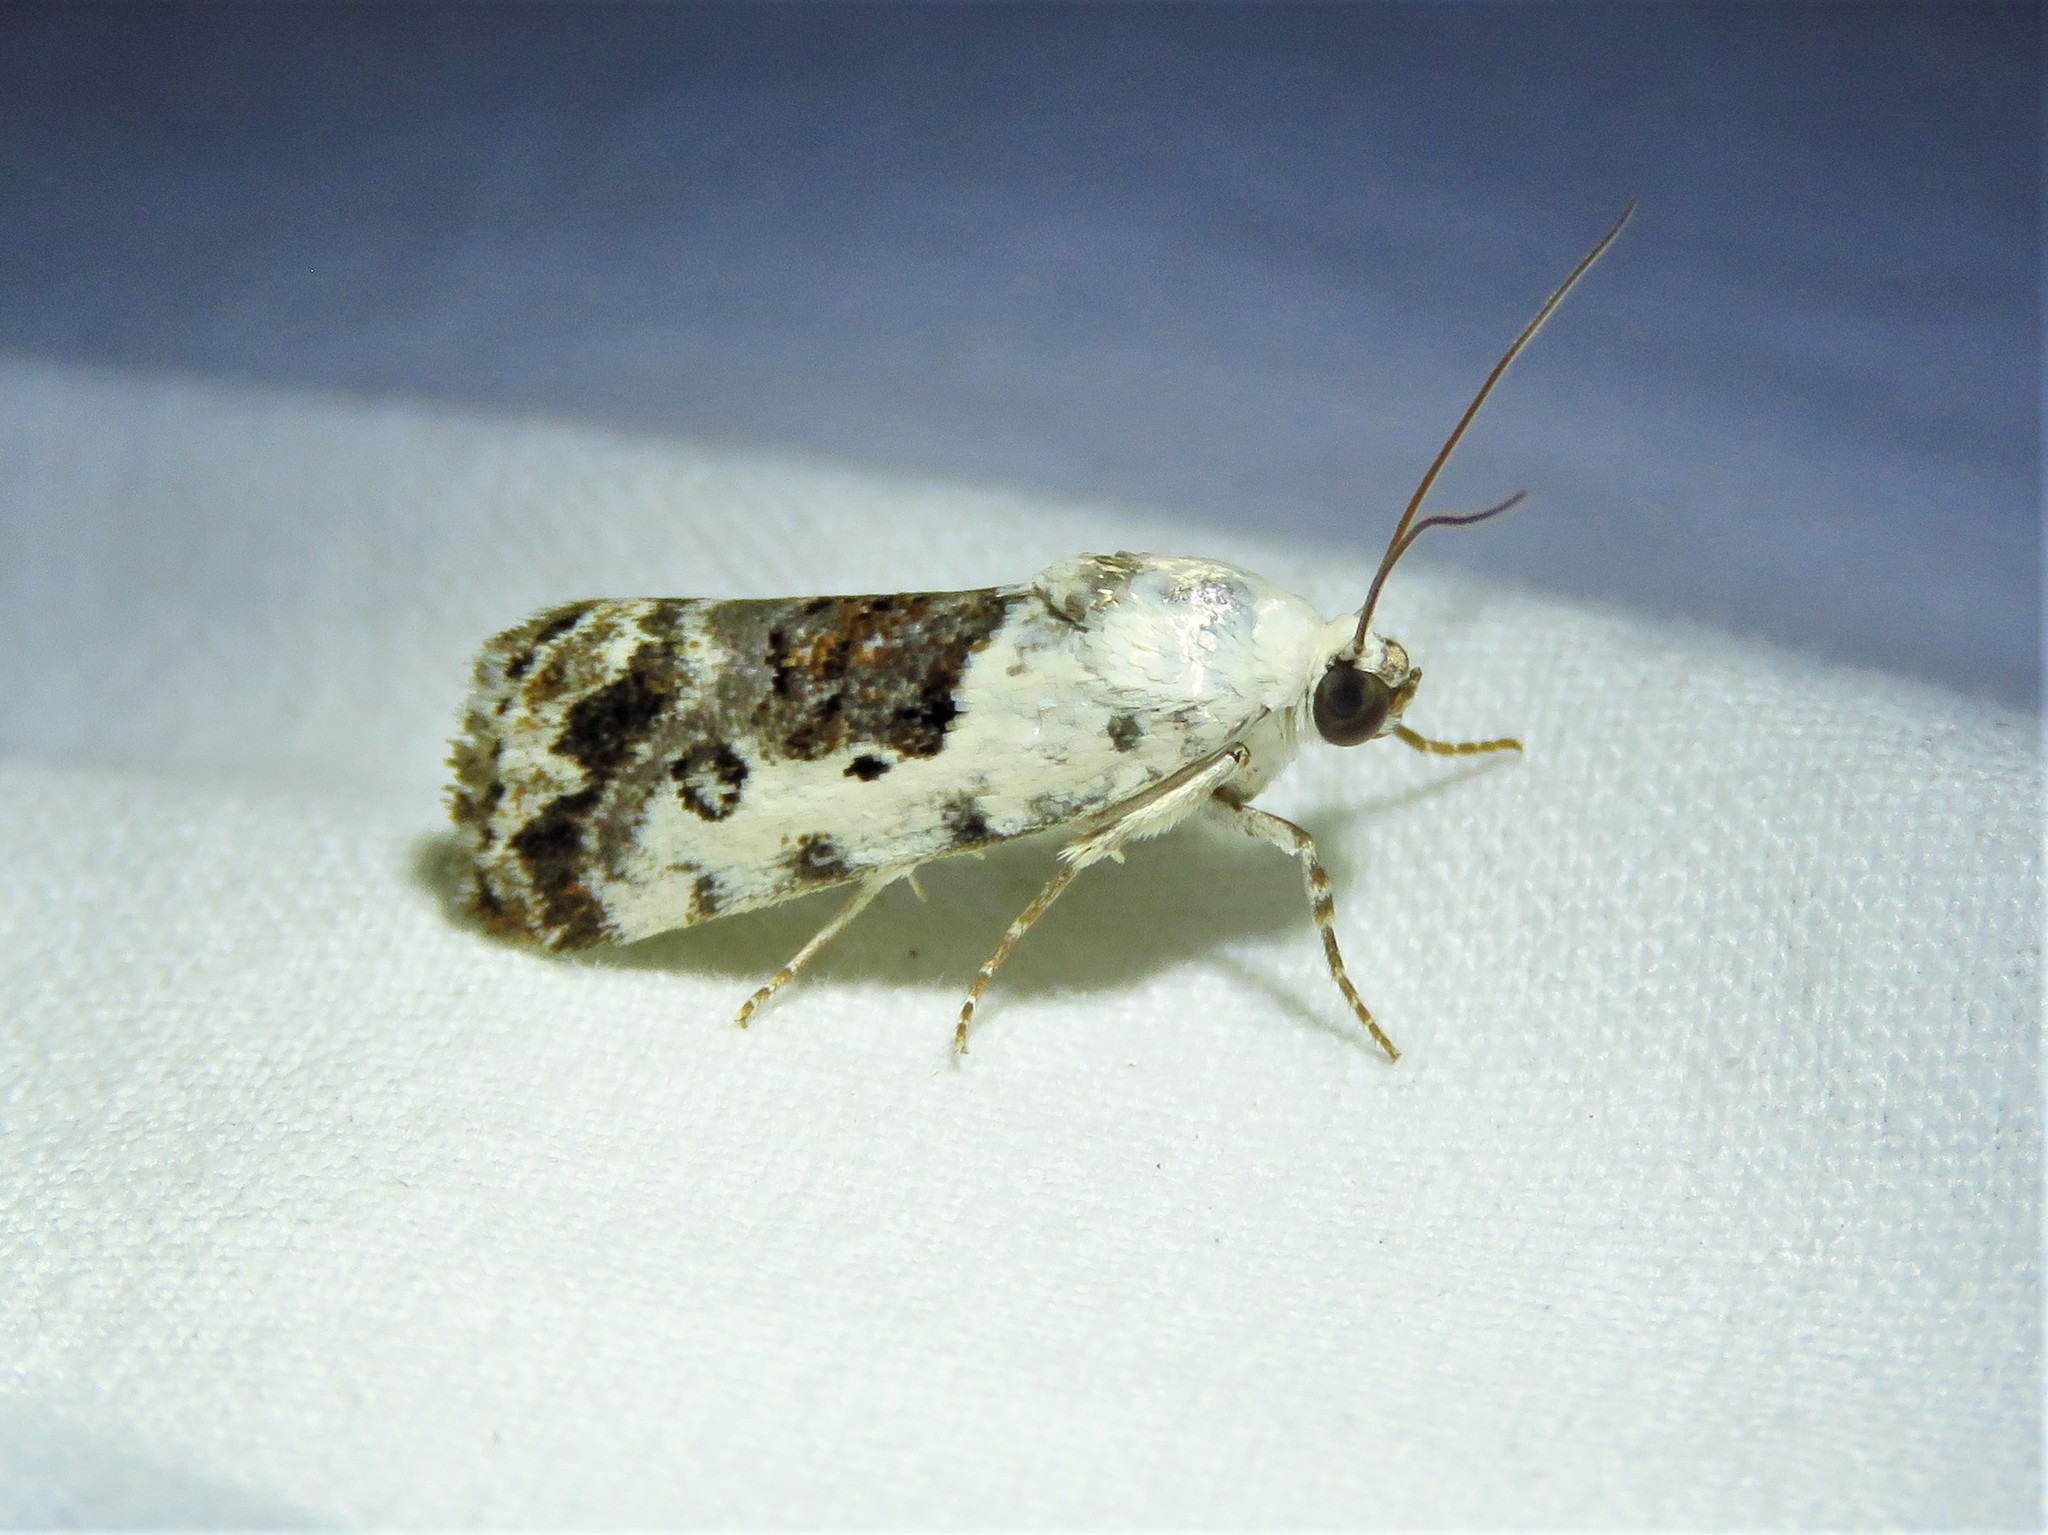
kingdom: Animalia
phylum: Arthropoda
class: Insecta
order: Lepidoptera
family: Noctuidae
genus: Acontia
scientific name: Acontia phecolisca
